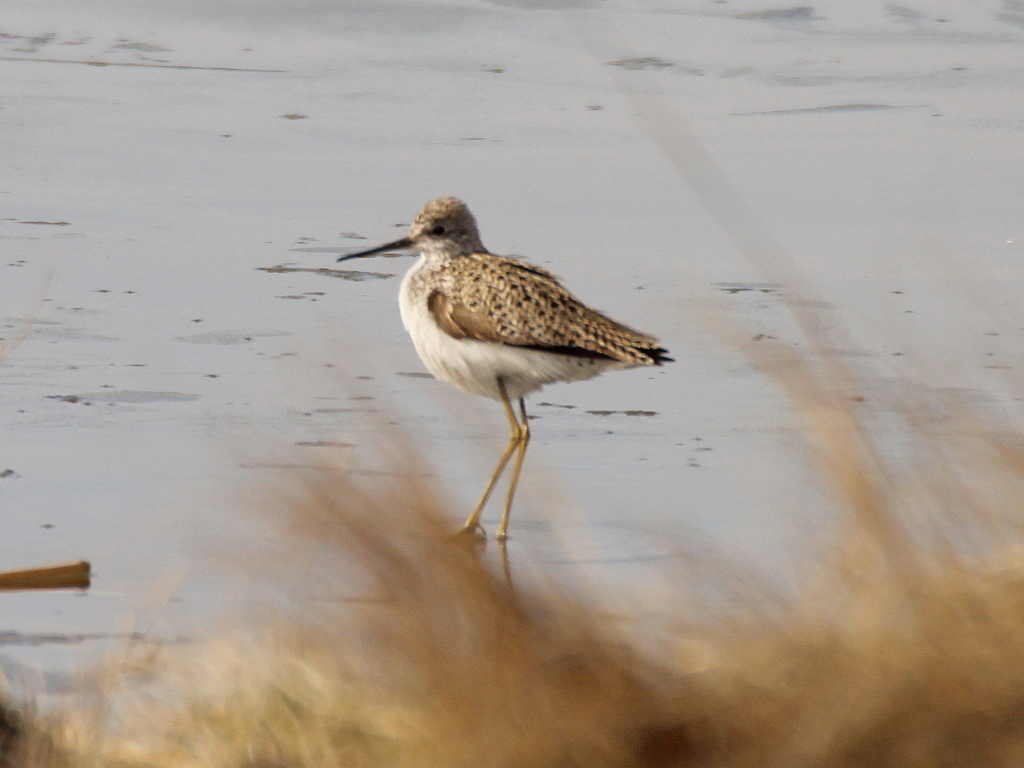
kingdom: Animalia
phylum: Chordata
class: Aves
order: Charadriiformes
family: Scolopacidae
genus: Tringa
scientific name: Tringa stagnatilis
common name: Marsh sandpiper
